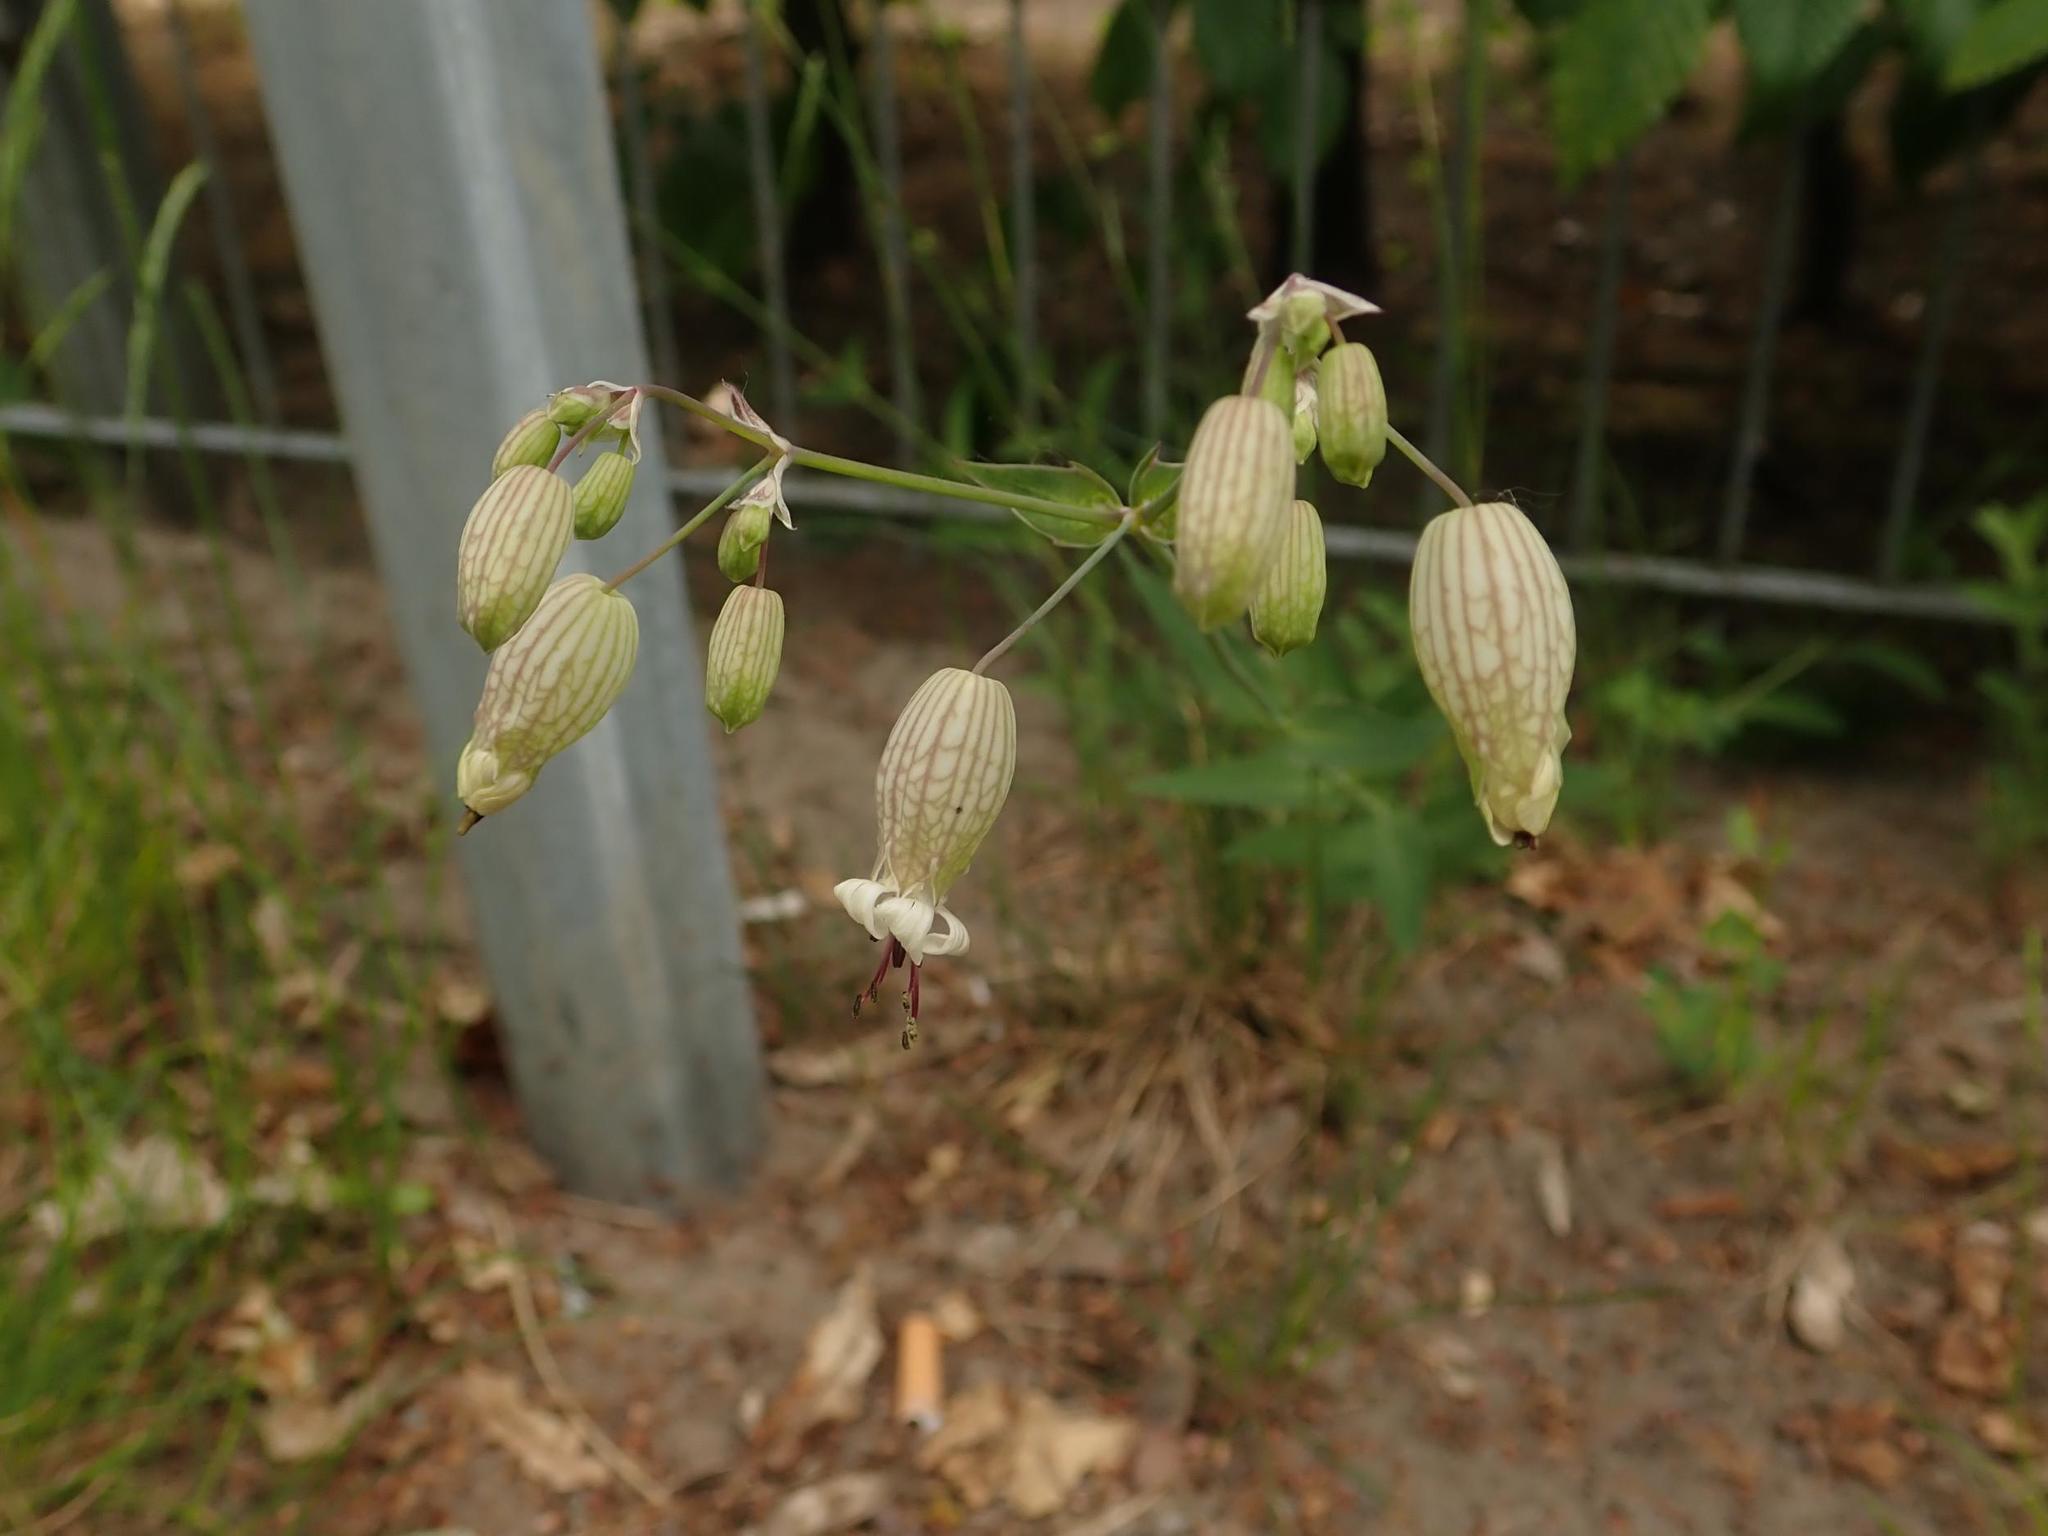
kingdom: Plantae
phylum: Tracheophyta
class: Magnoliopsida
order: Caryophyllales
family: Caryophyllaceae
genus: Silene
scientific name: Silene vulgaris
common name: Bladder campion
